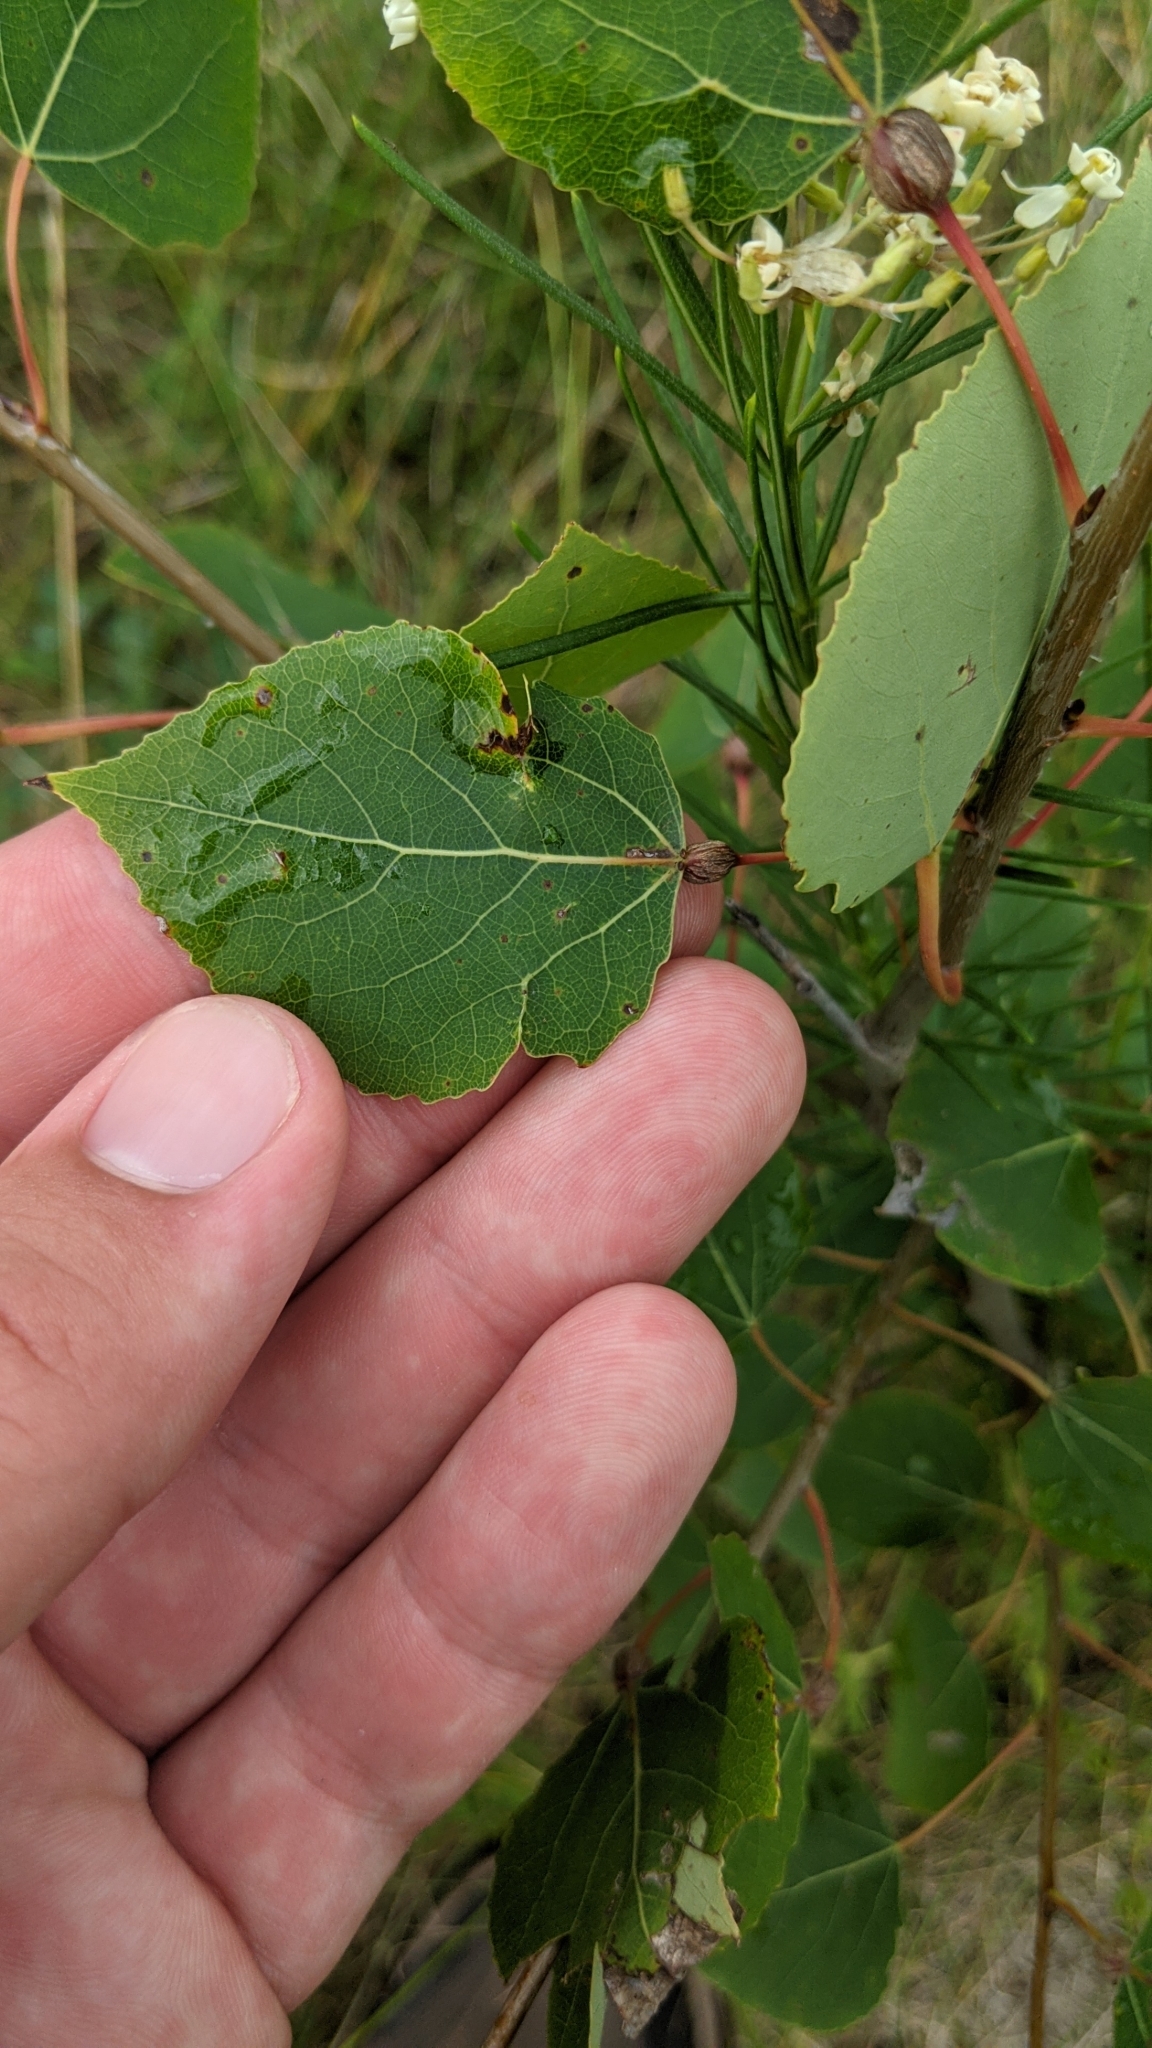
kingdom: Animalia
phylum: Arthropoda
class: Insecta
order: Lepidoptera
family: Nepticulidae
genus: Ectoedemia
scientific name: Ectoedemia populella
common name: Aspen petiole gall moth
